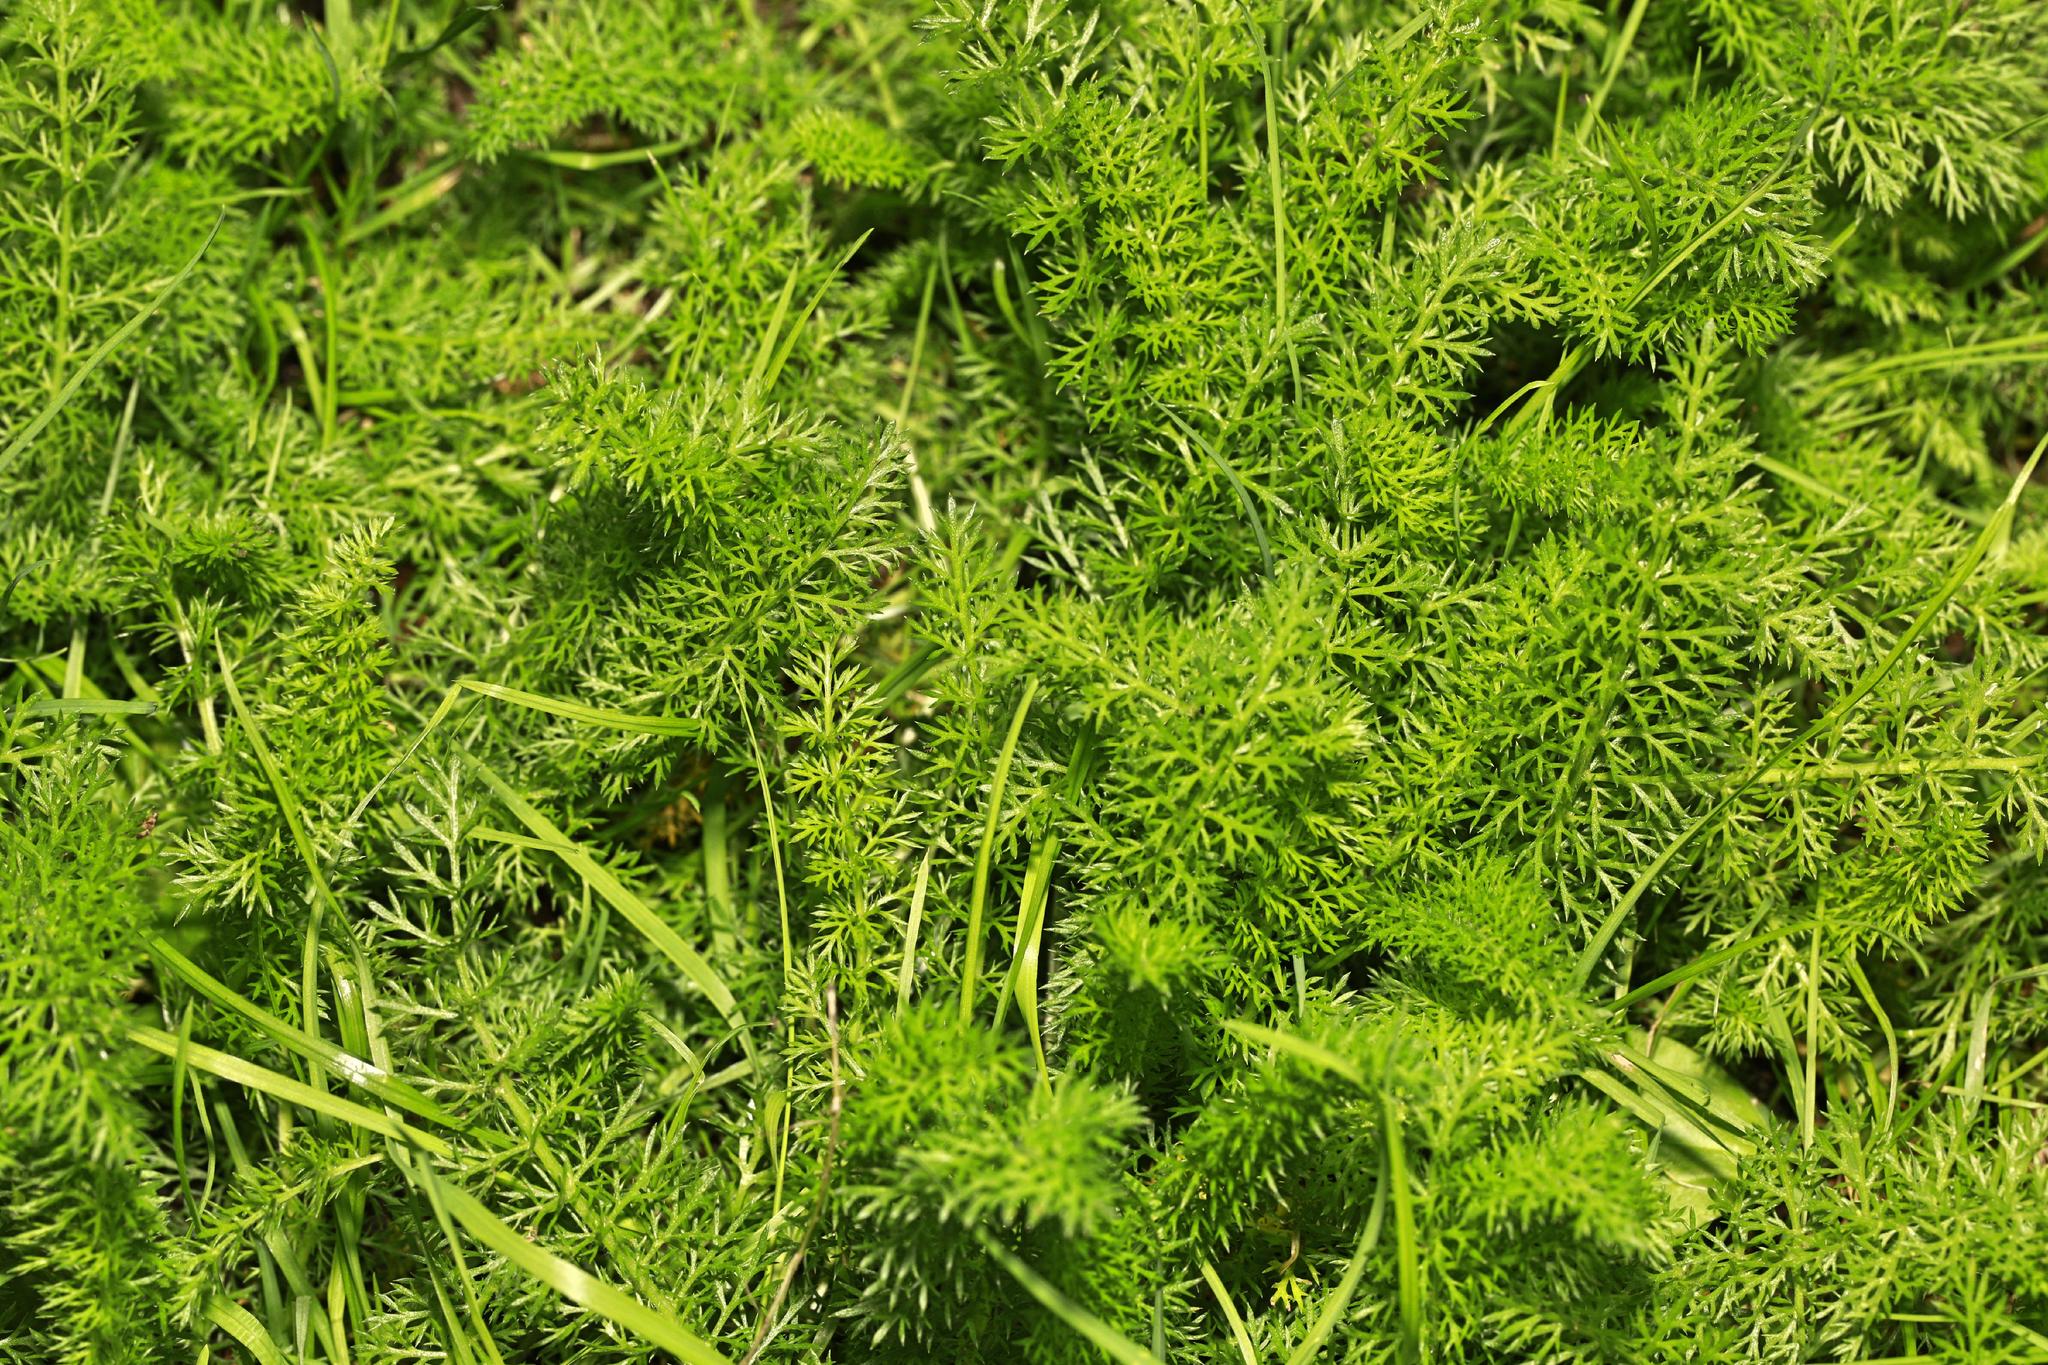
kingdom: Plantae
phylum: Tracheophyta
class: Magnoliopsida
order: Asterales
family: Asteraceae
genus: Achillea
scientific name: Achillea millefolium
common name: Yarrow
